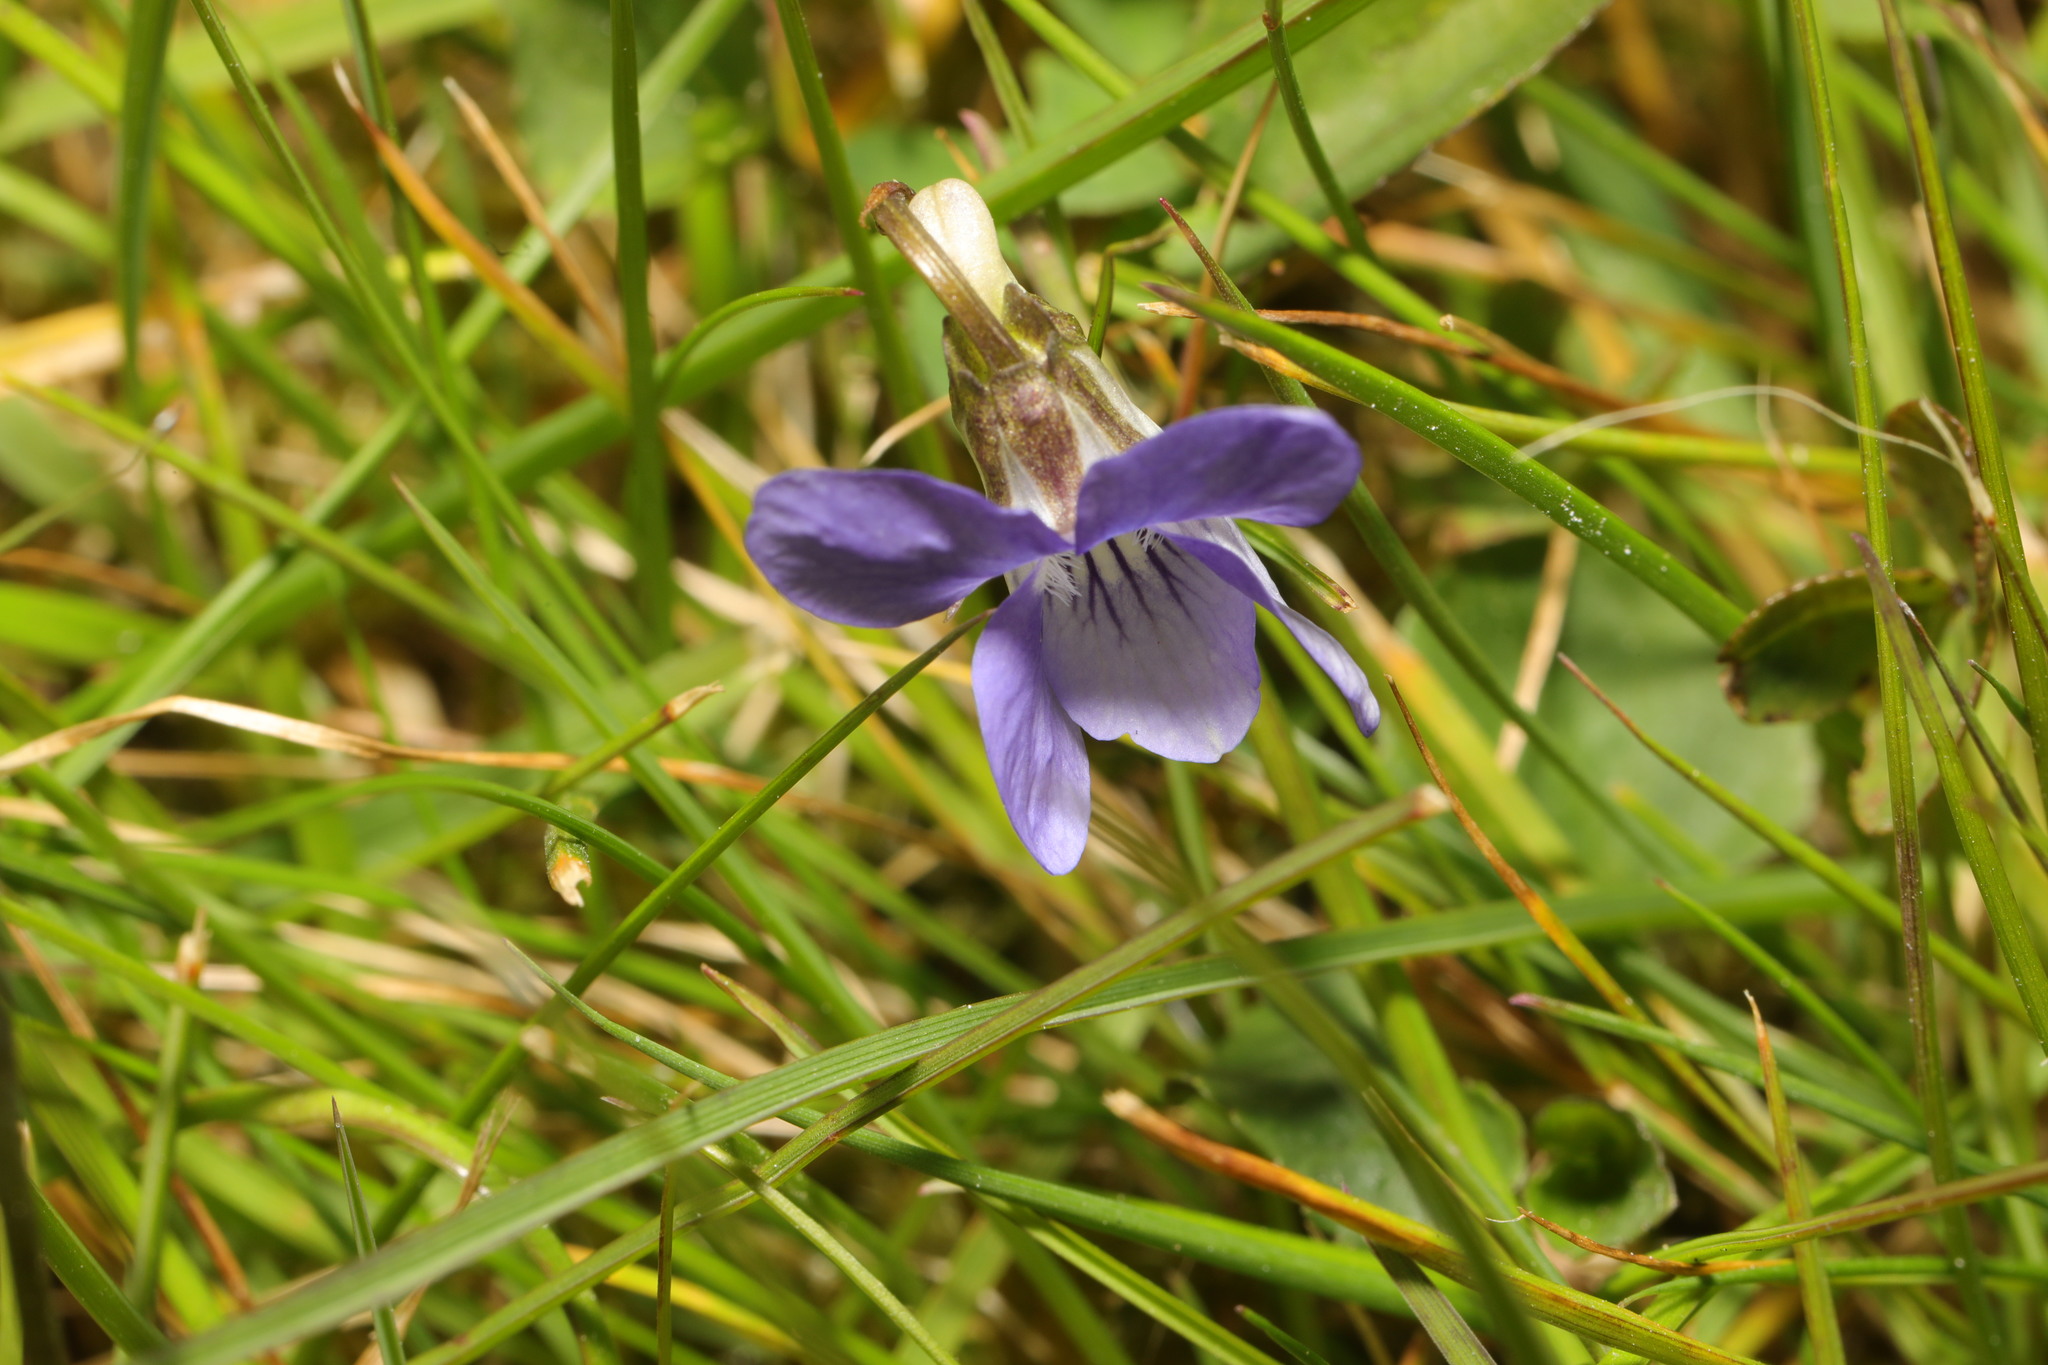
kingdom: Plantae
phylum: Tracheophyta
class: Magnoliopsida
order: Malpighiales
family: Violaceae
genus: Viola
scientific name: Viola riviniana
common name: Common dog-violet
